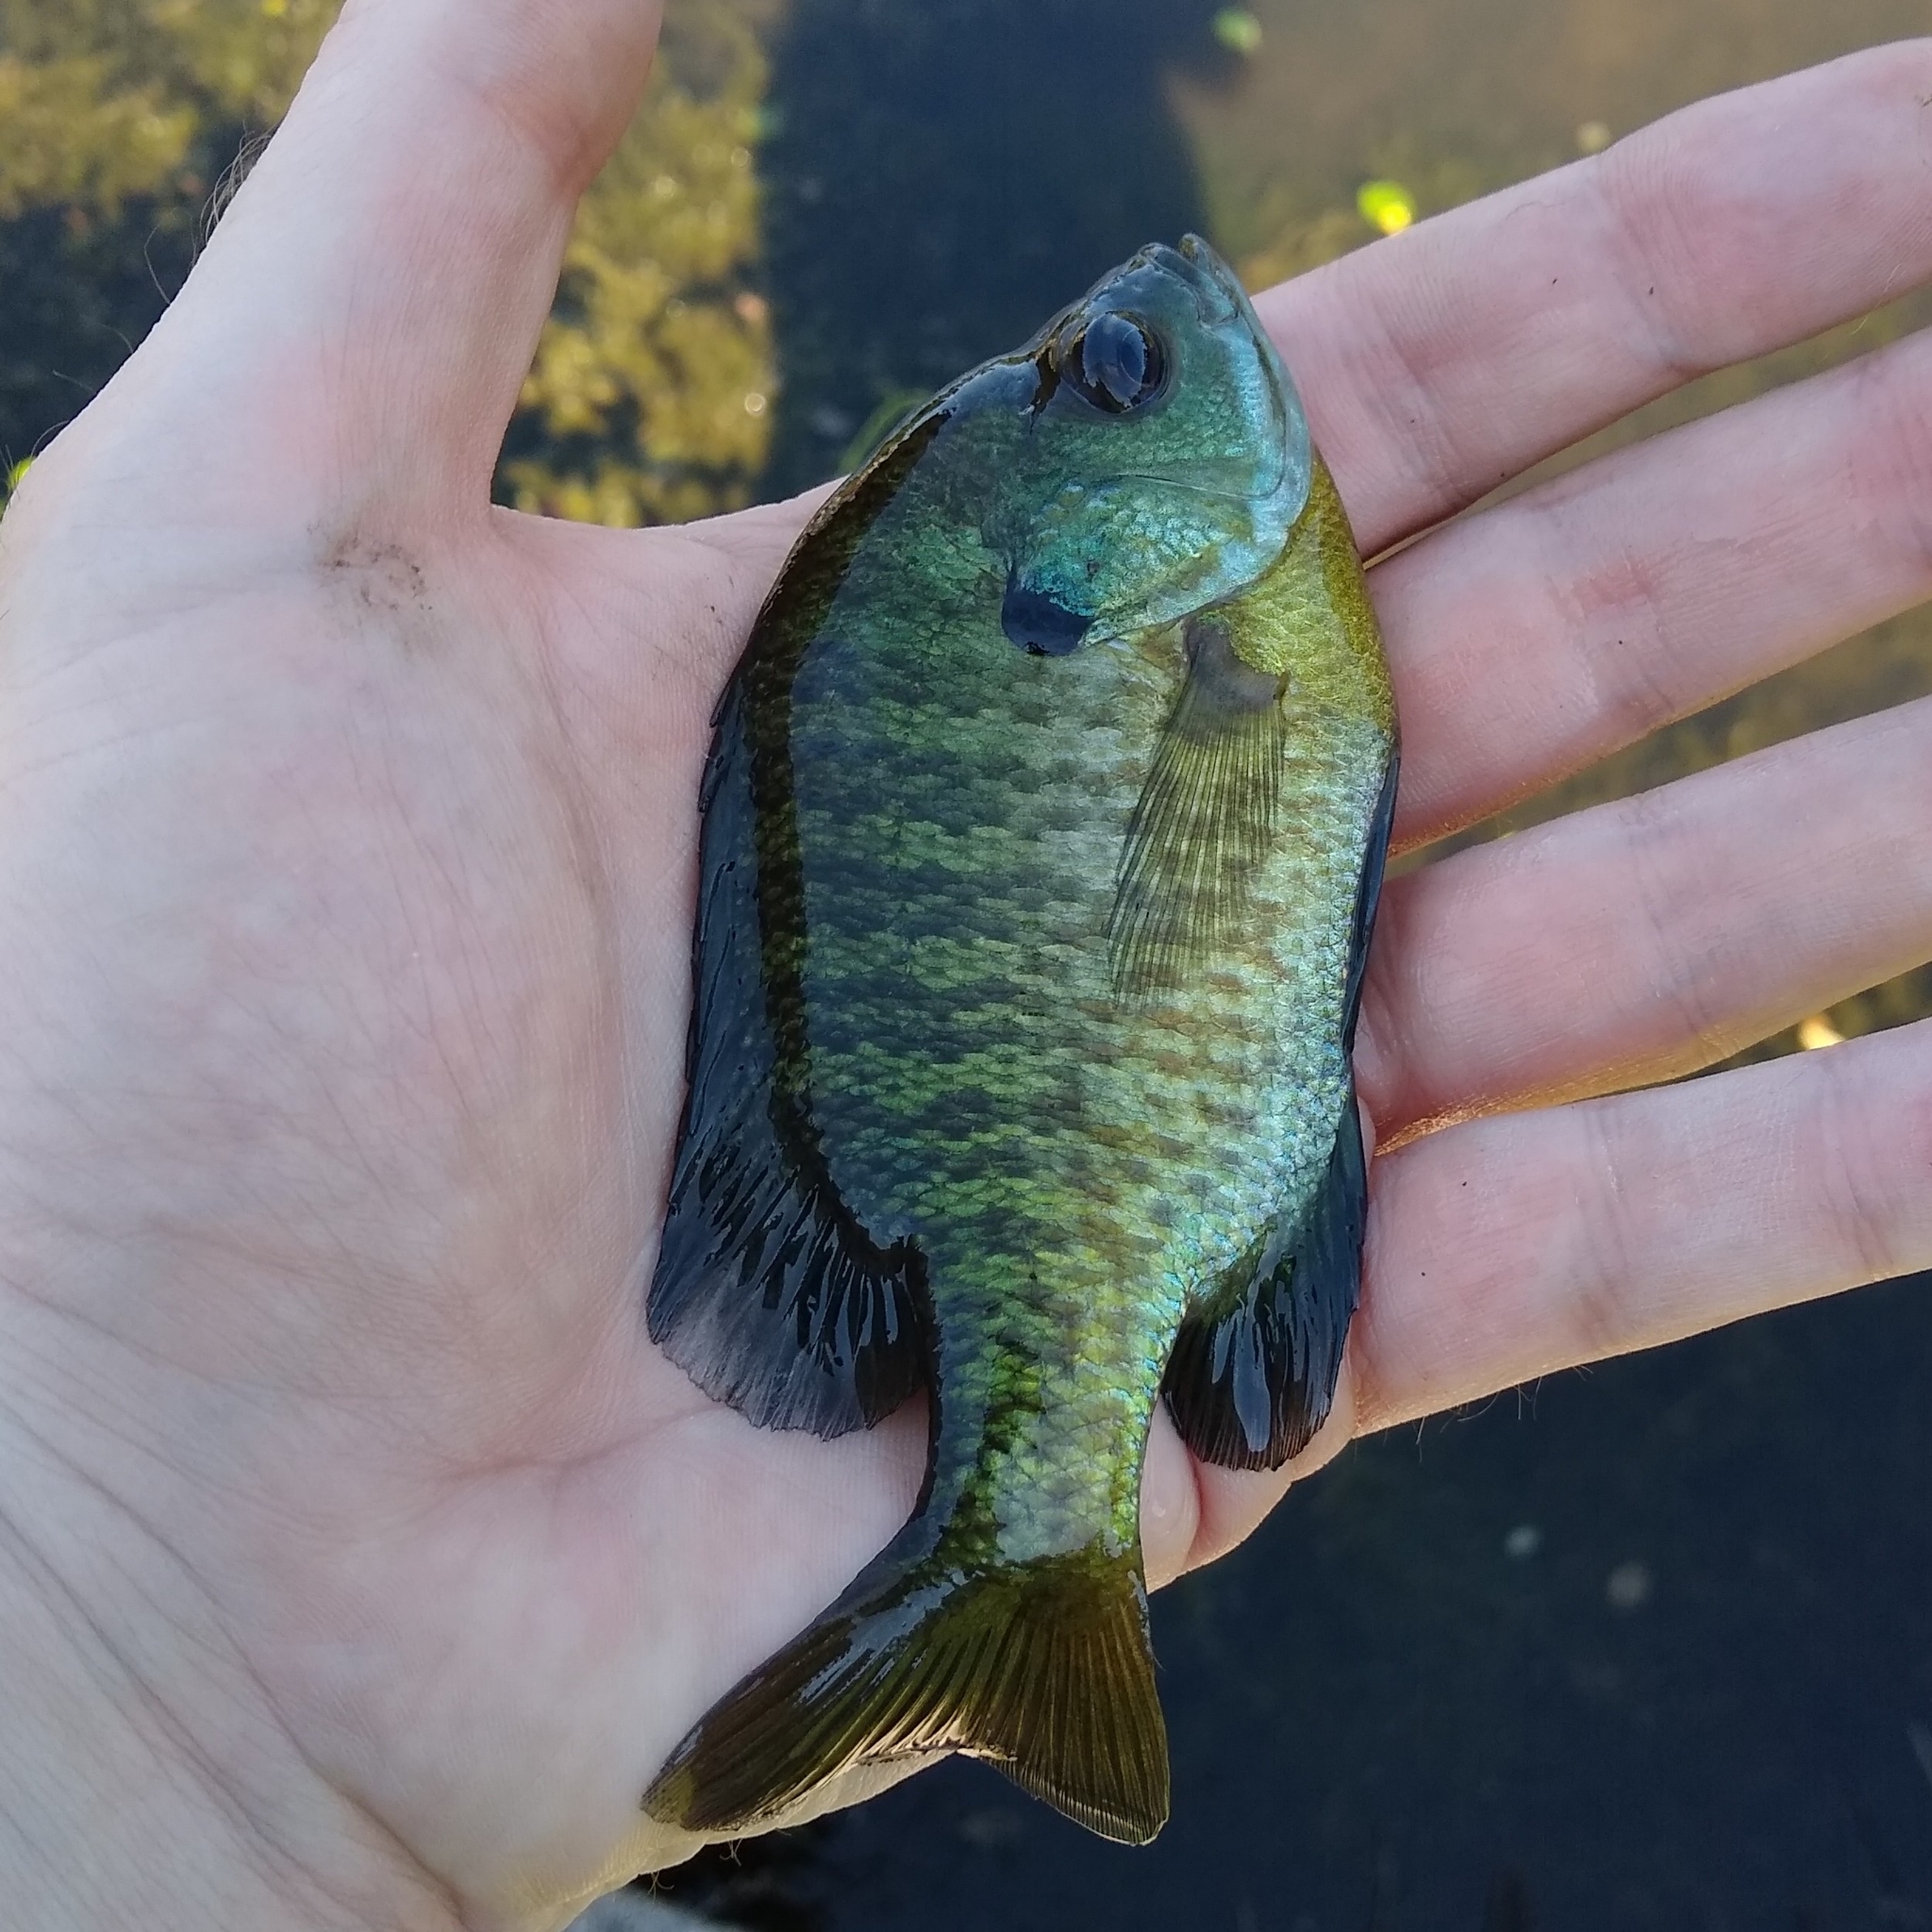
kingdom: Animalia
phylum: Chordata
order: Perciformes
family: Centrarchidae
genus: Lepomis
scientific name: Lepomis macrochirus
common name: Bluegill
